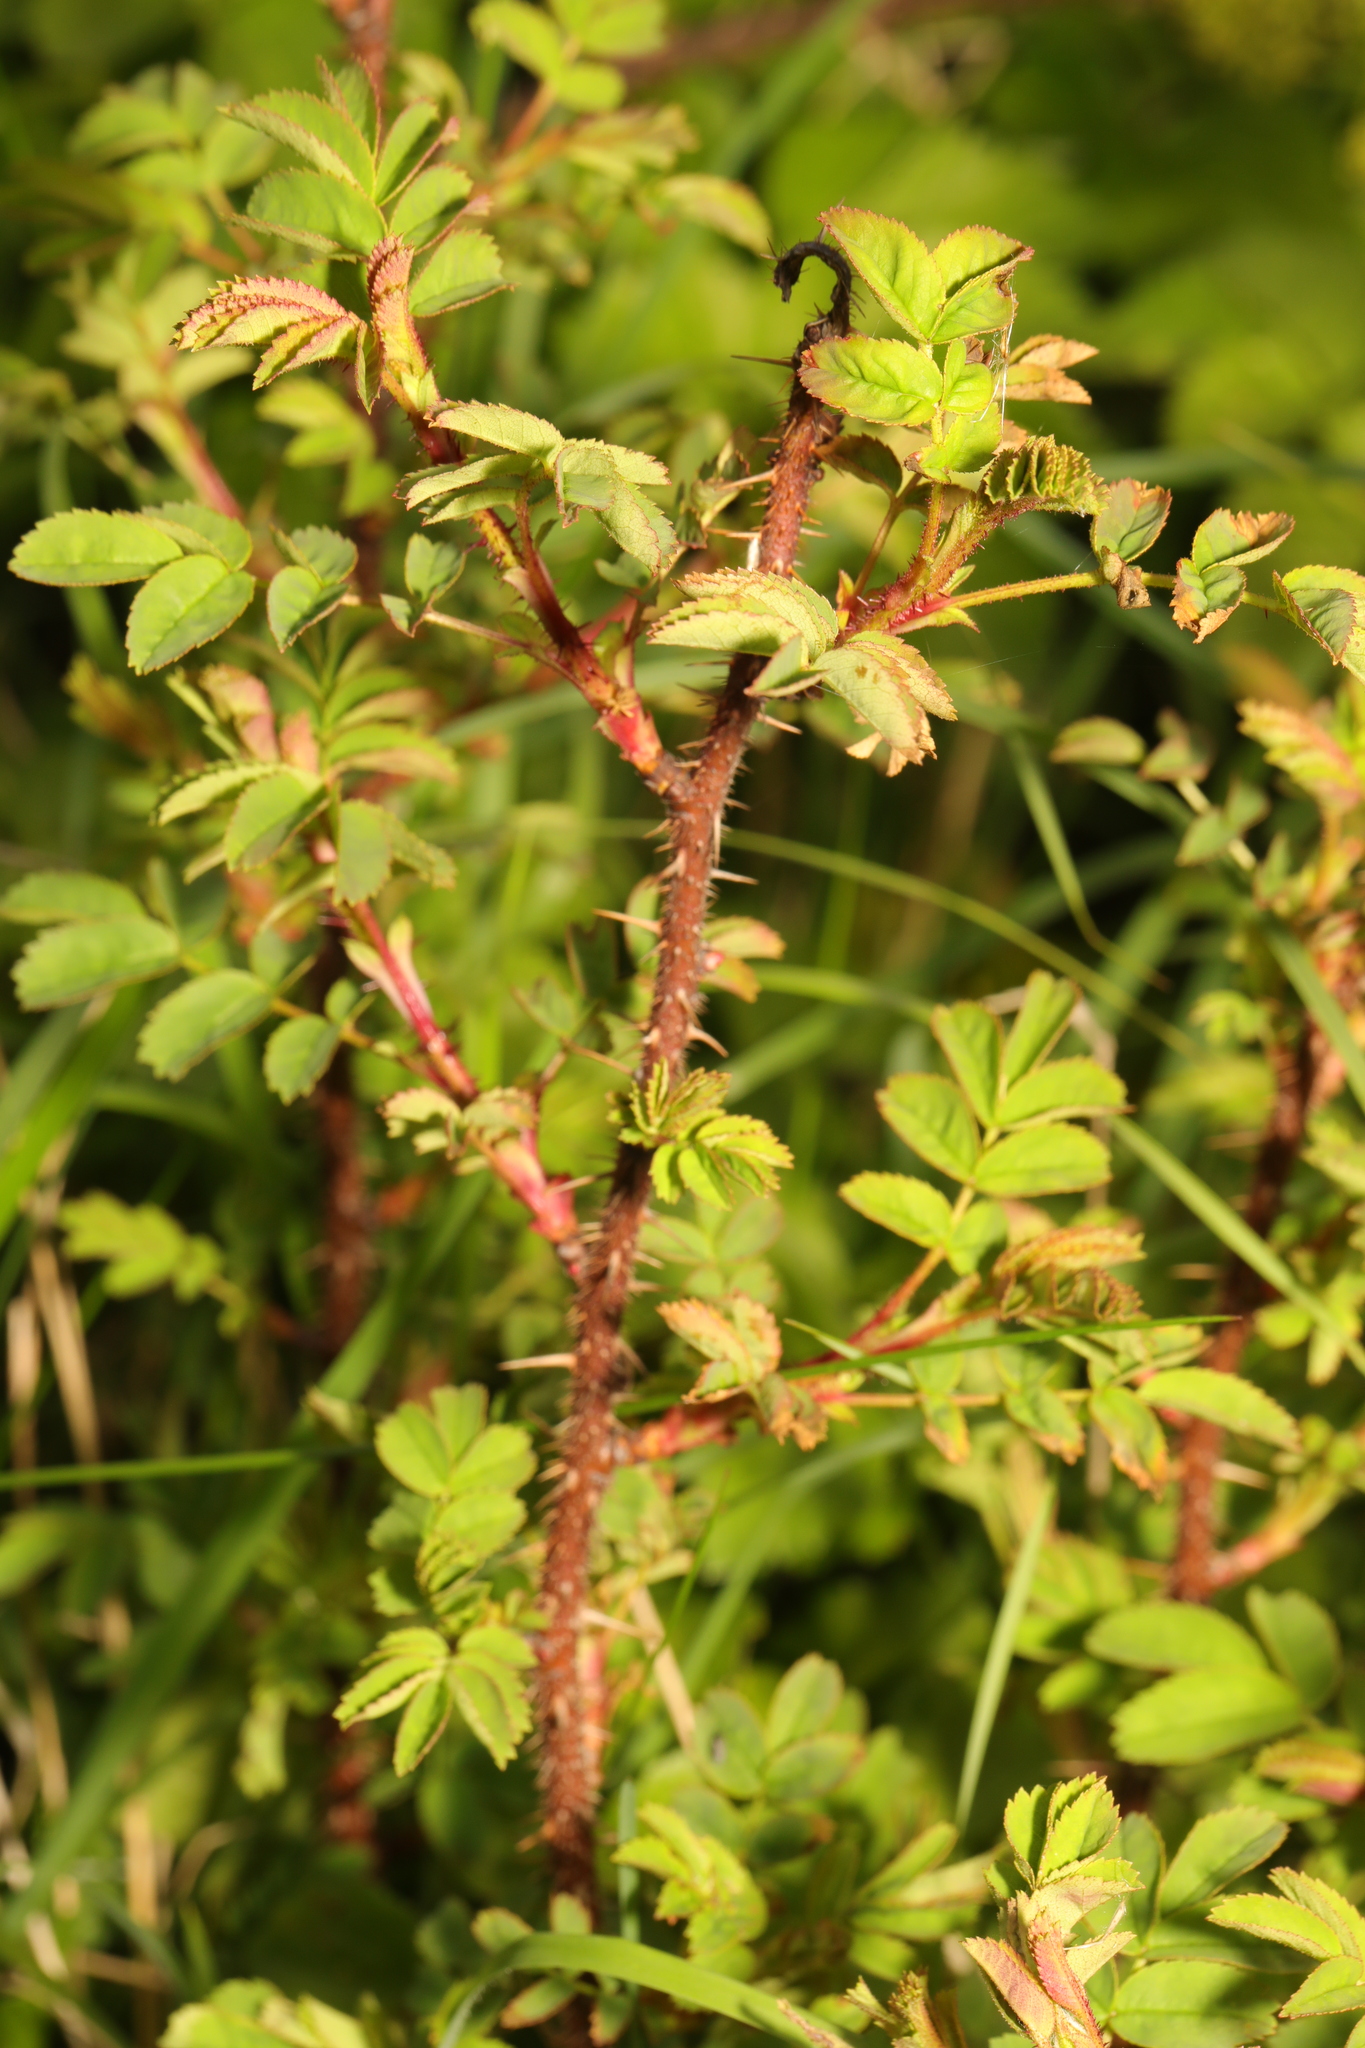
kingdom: Plantae
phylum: Tracheophyta
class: Magnoliopsida
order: Rosales
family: Rosaceae
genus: Rosa
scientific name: Rosa spinosissima
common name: Burnet rose
